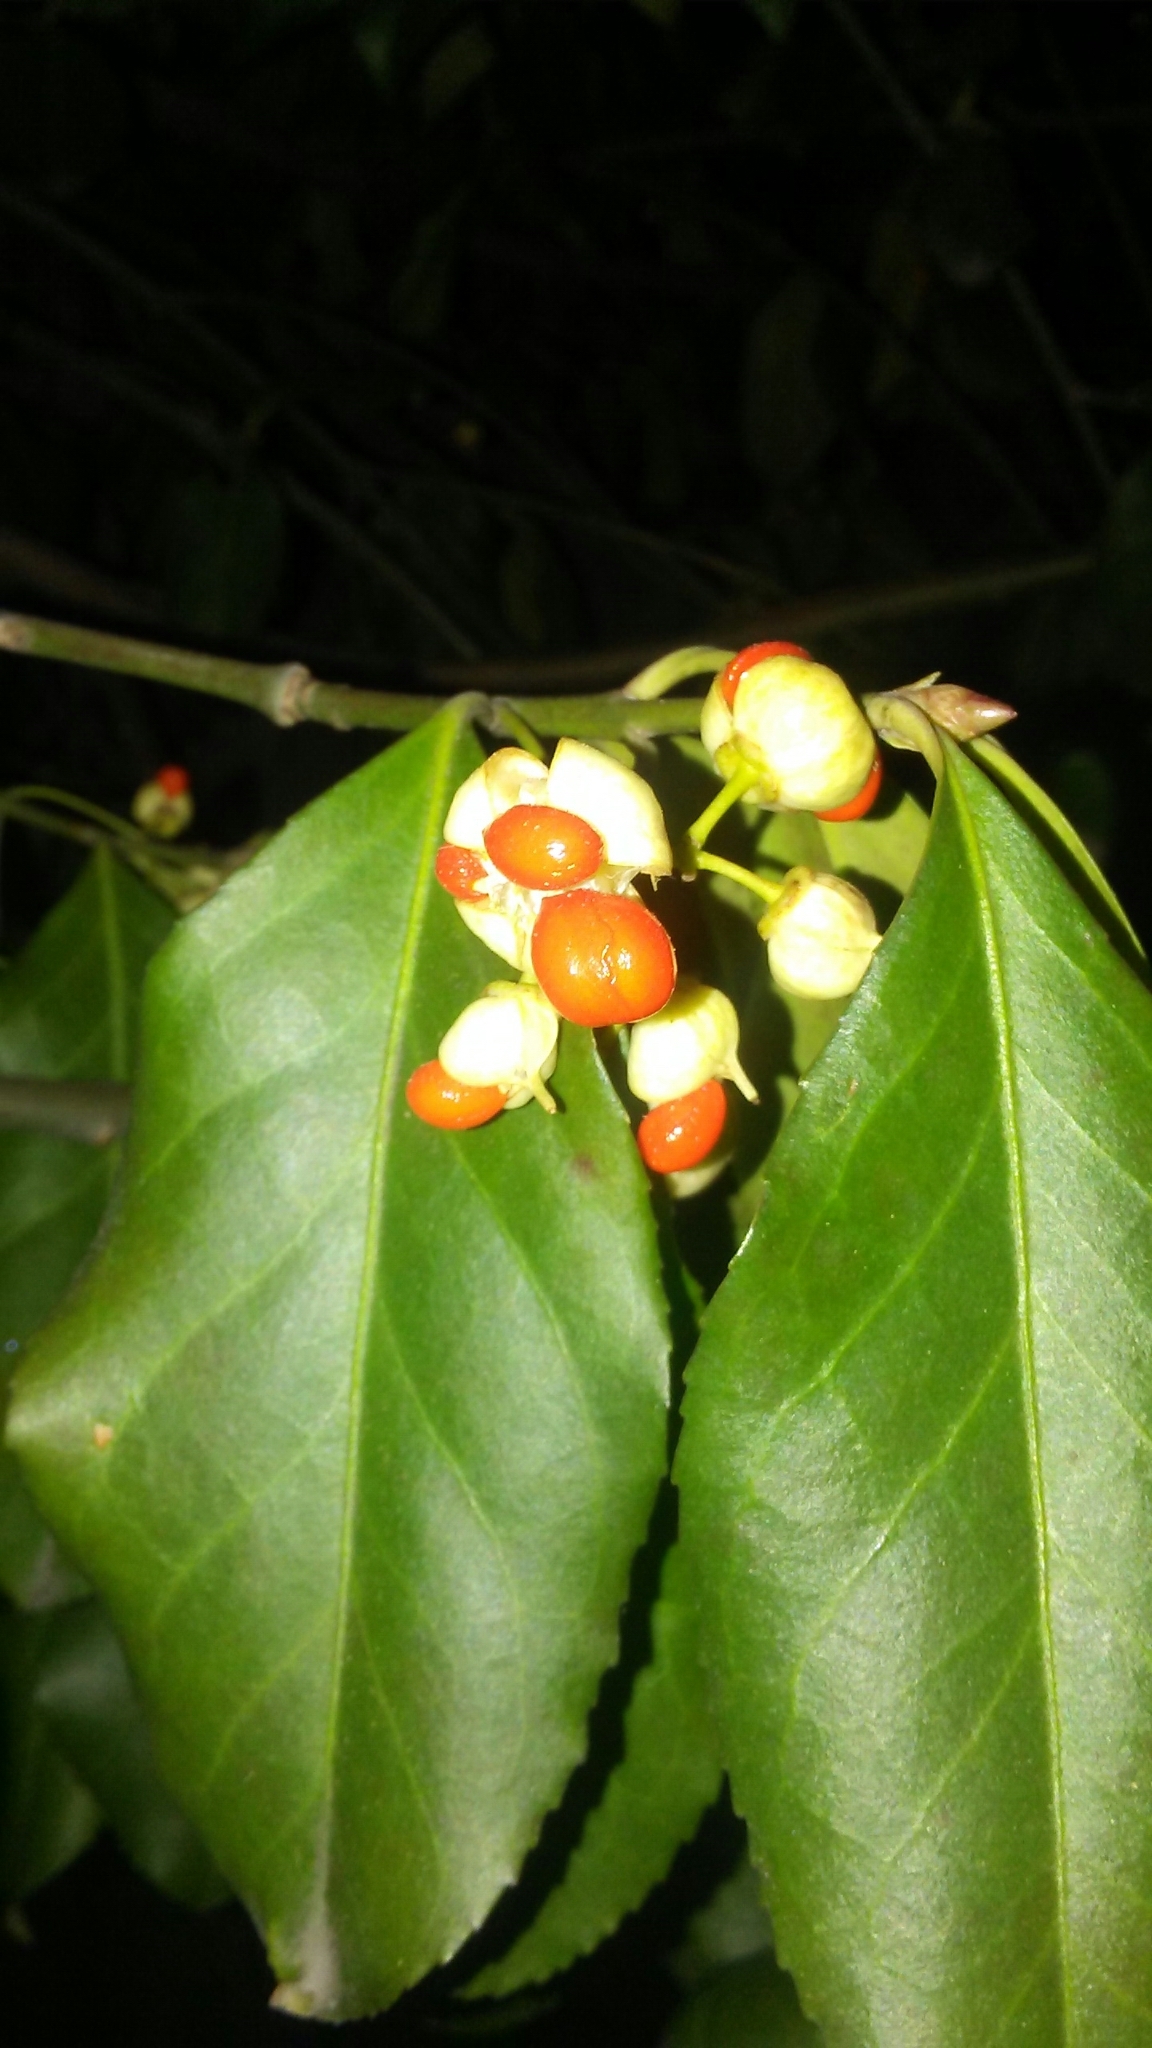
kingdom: Plantae
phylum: Tracheophyta
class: Magnoliopsida
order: Celastrales
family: Celastraceae
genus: Euonymus
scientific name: Euonymus fortunei
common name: Climbing euonymus
